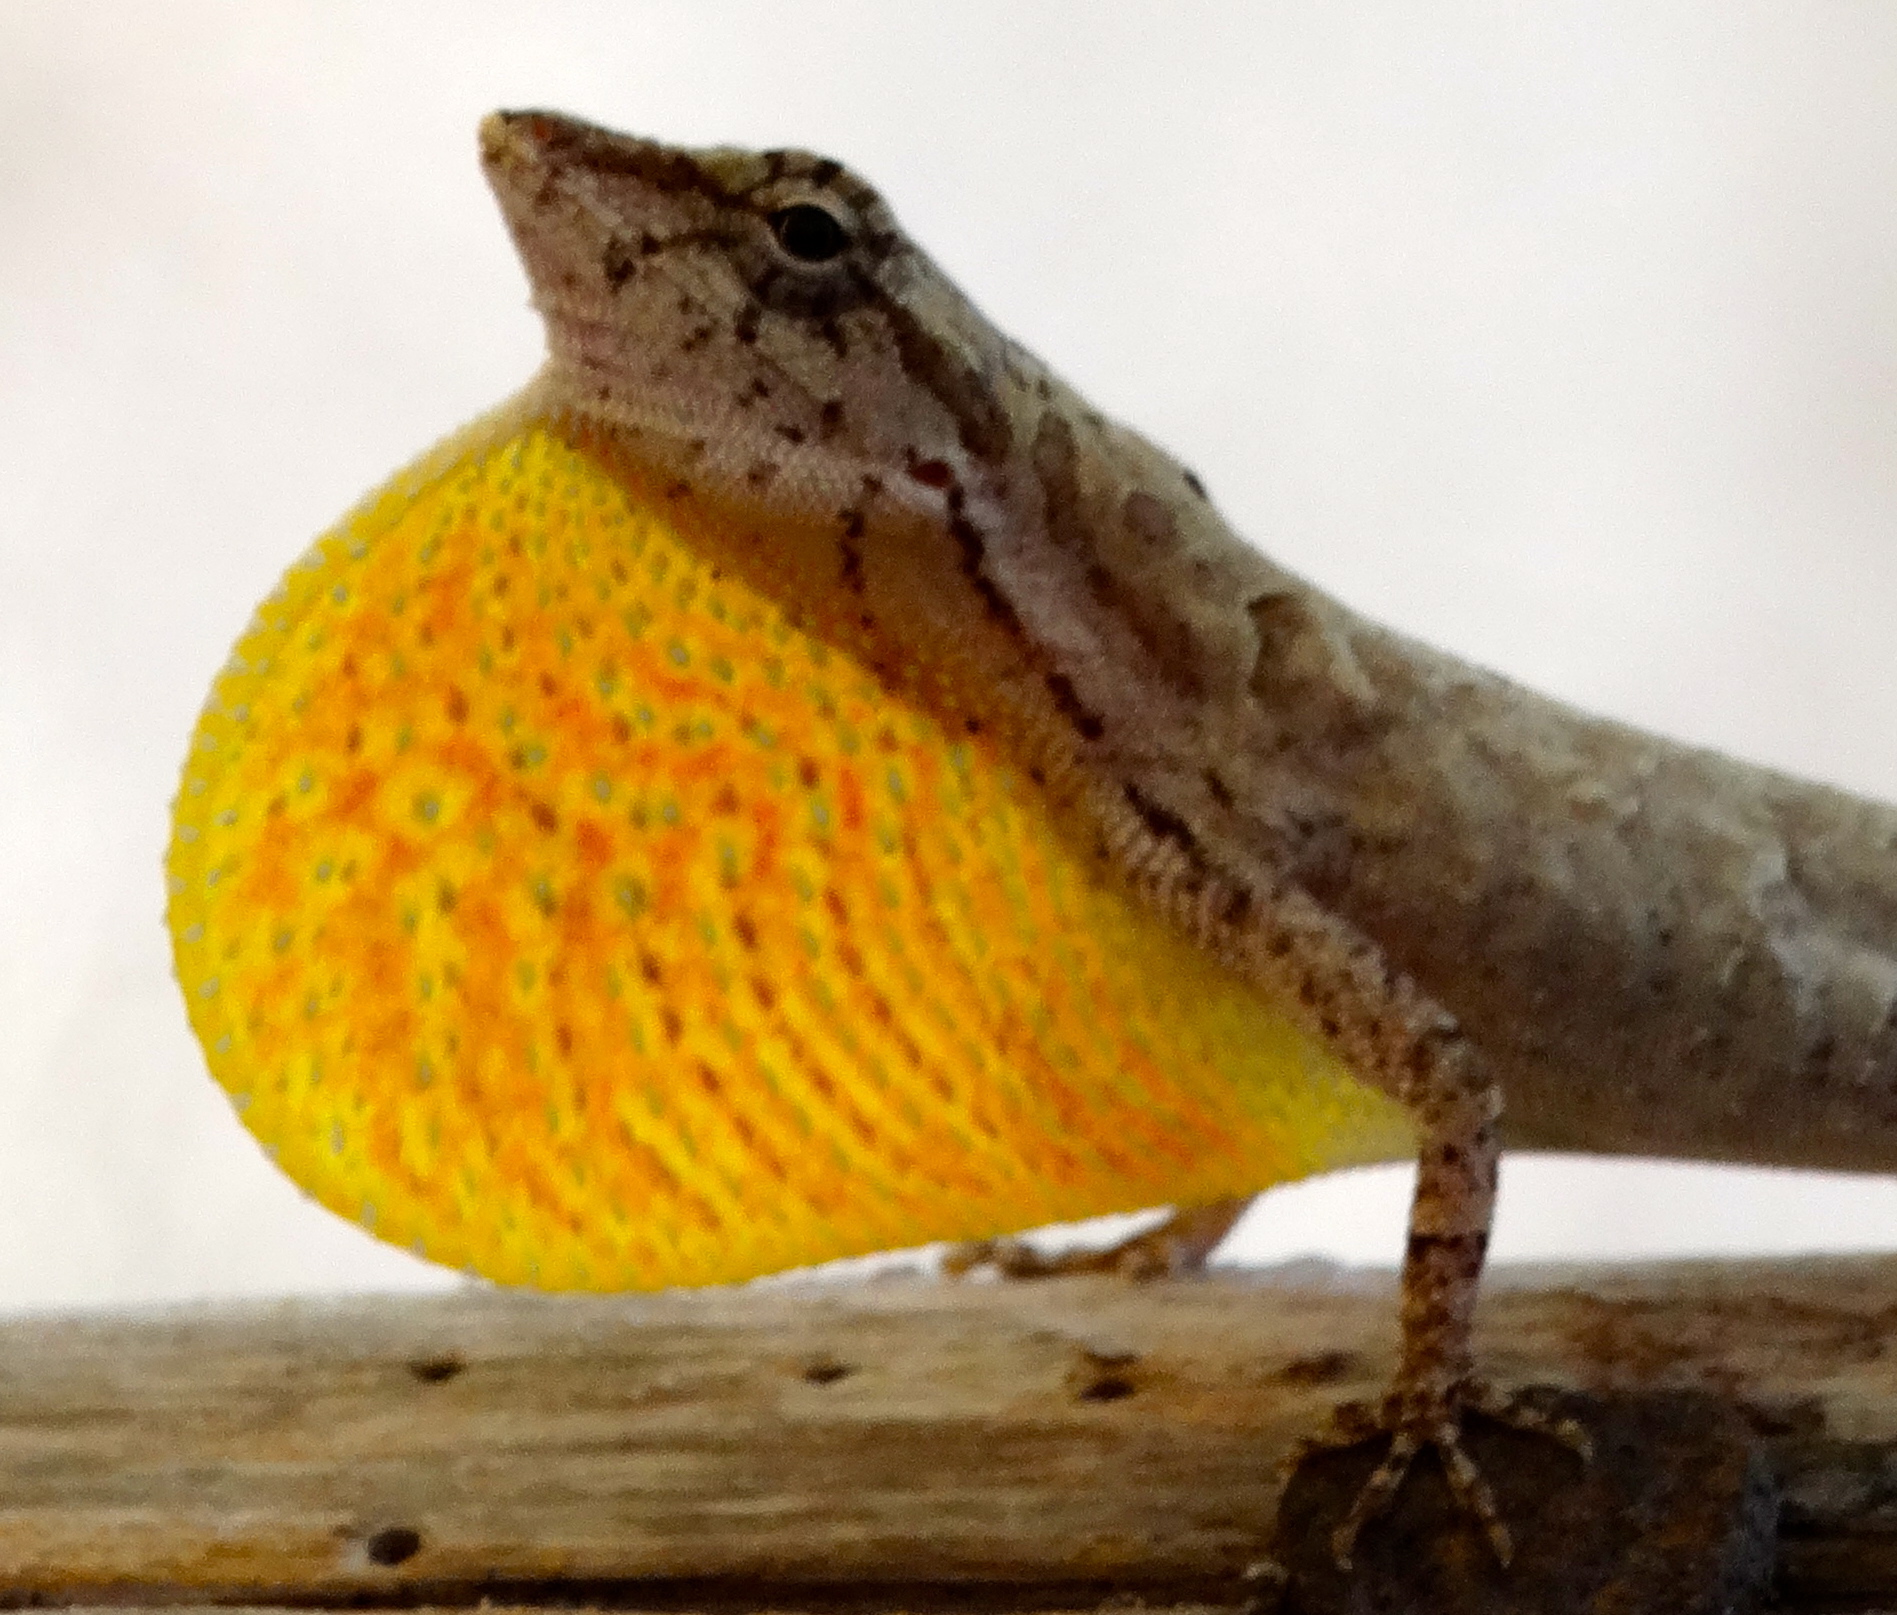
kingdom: Animalia
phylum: Chordata
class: Squamata
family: Dactyloidae
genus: Anolis
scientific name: Anolis nebulosus
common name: Clouded anole
